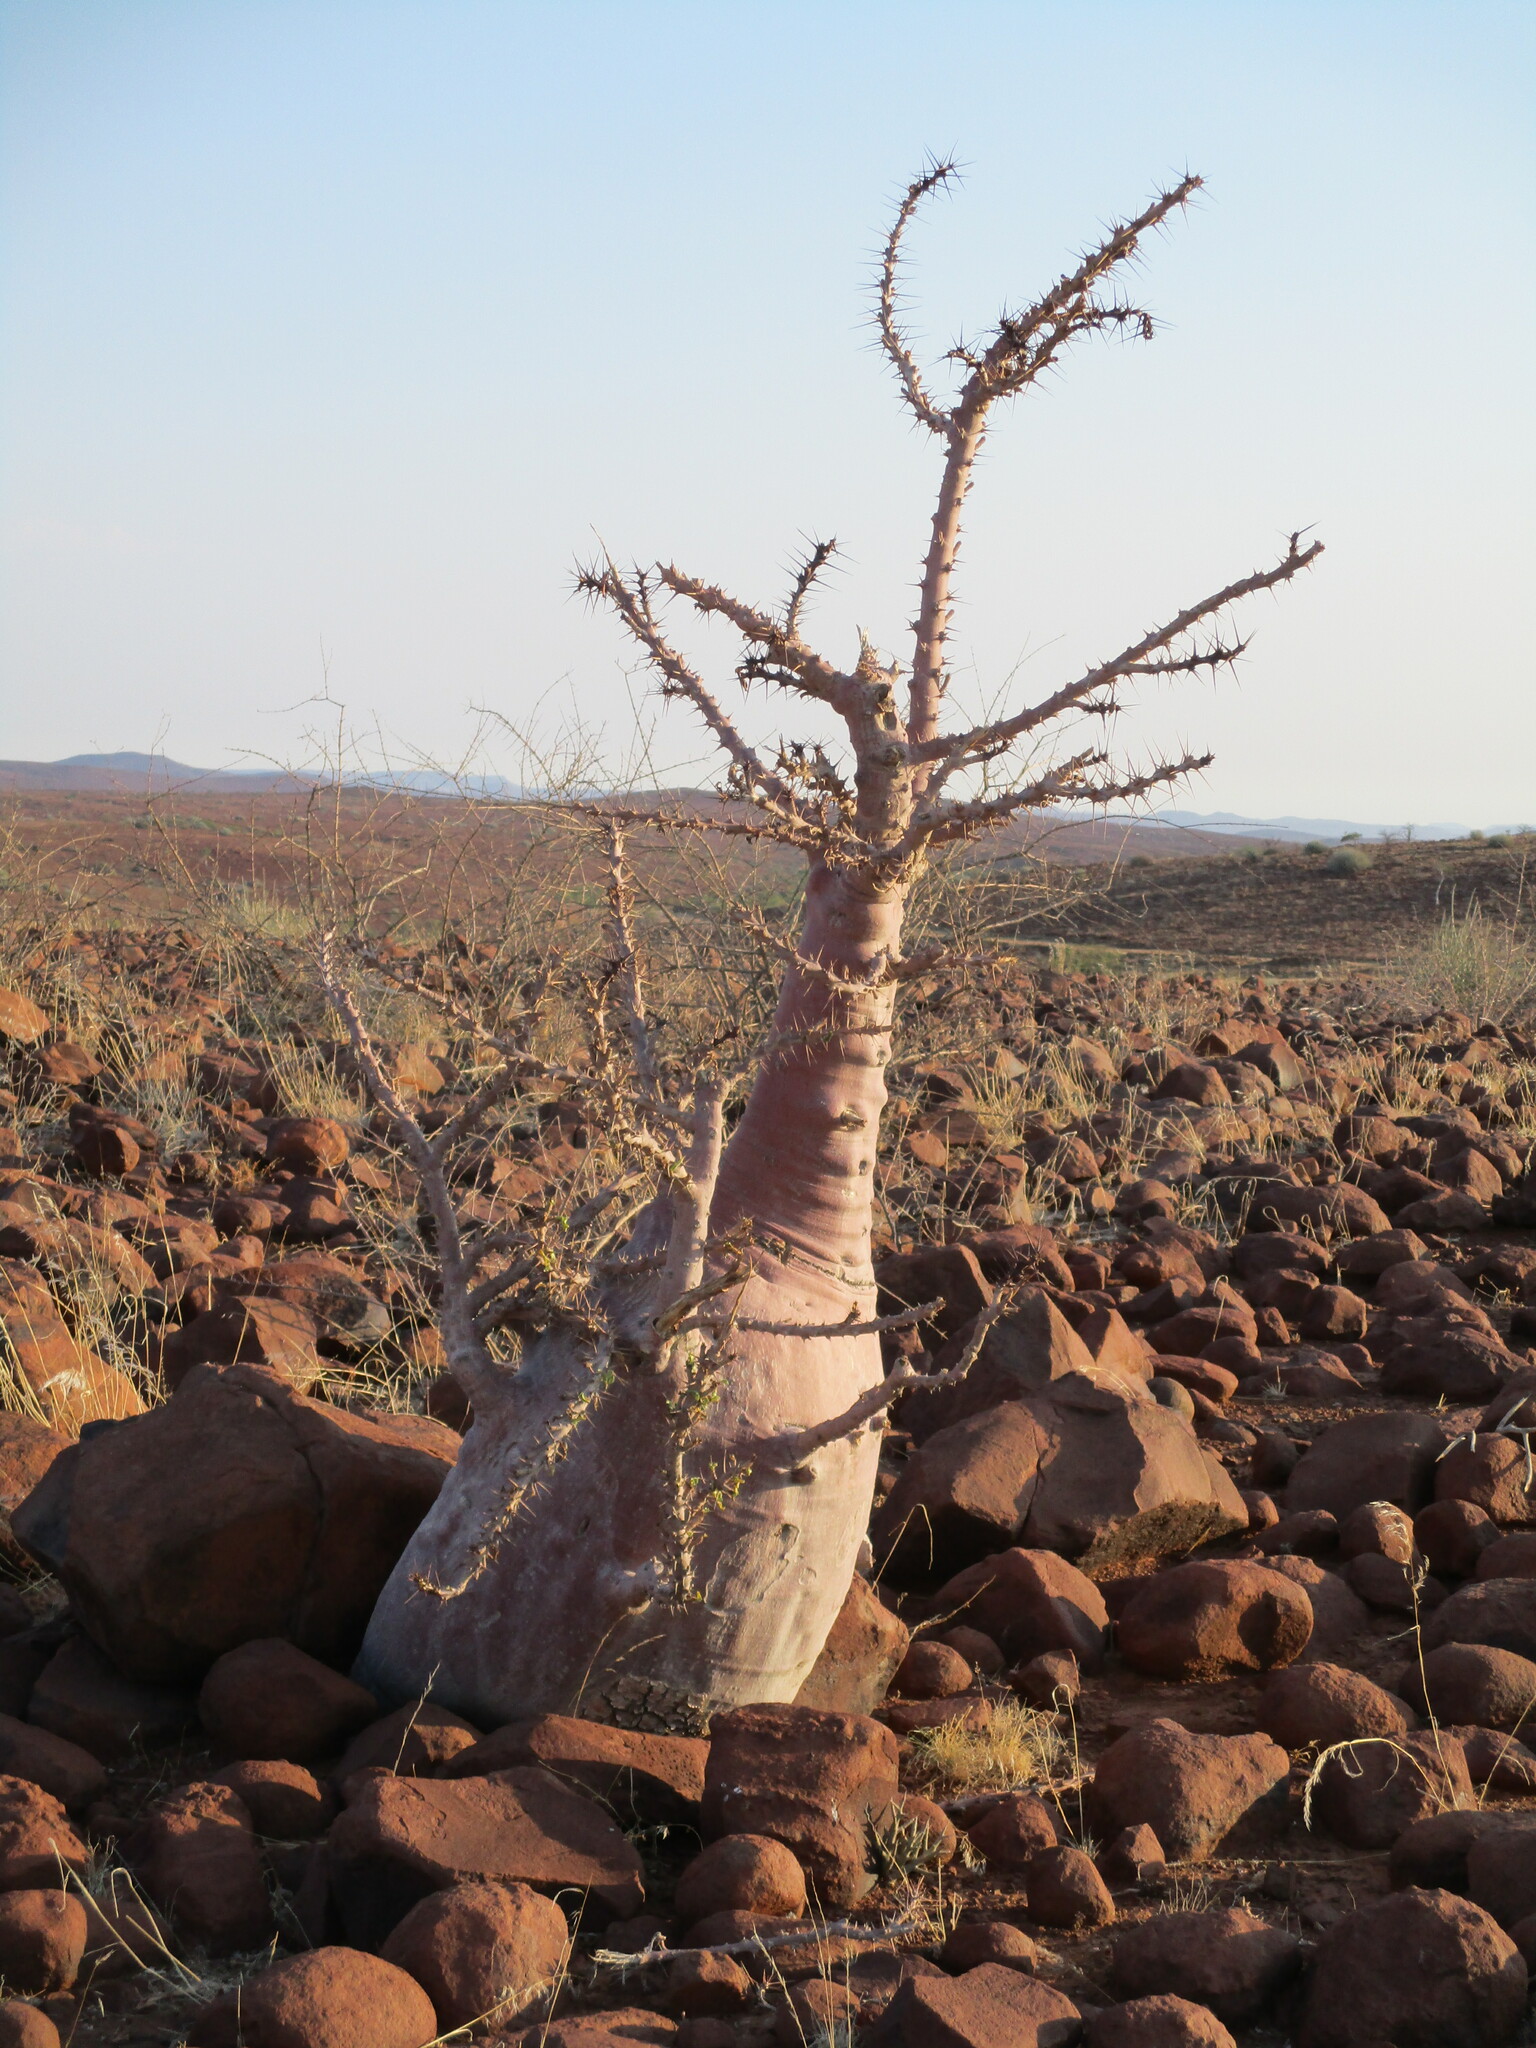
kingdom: Plantae
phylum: Tracheophyta
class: Magnoliopsida
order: Gentianales
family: Apocynaceae
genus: Pachypodium
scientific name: Pachypodium lealii
